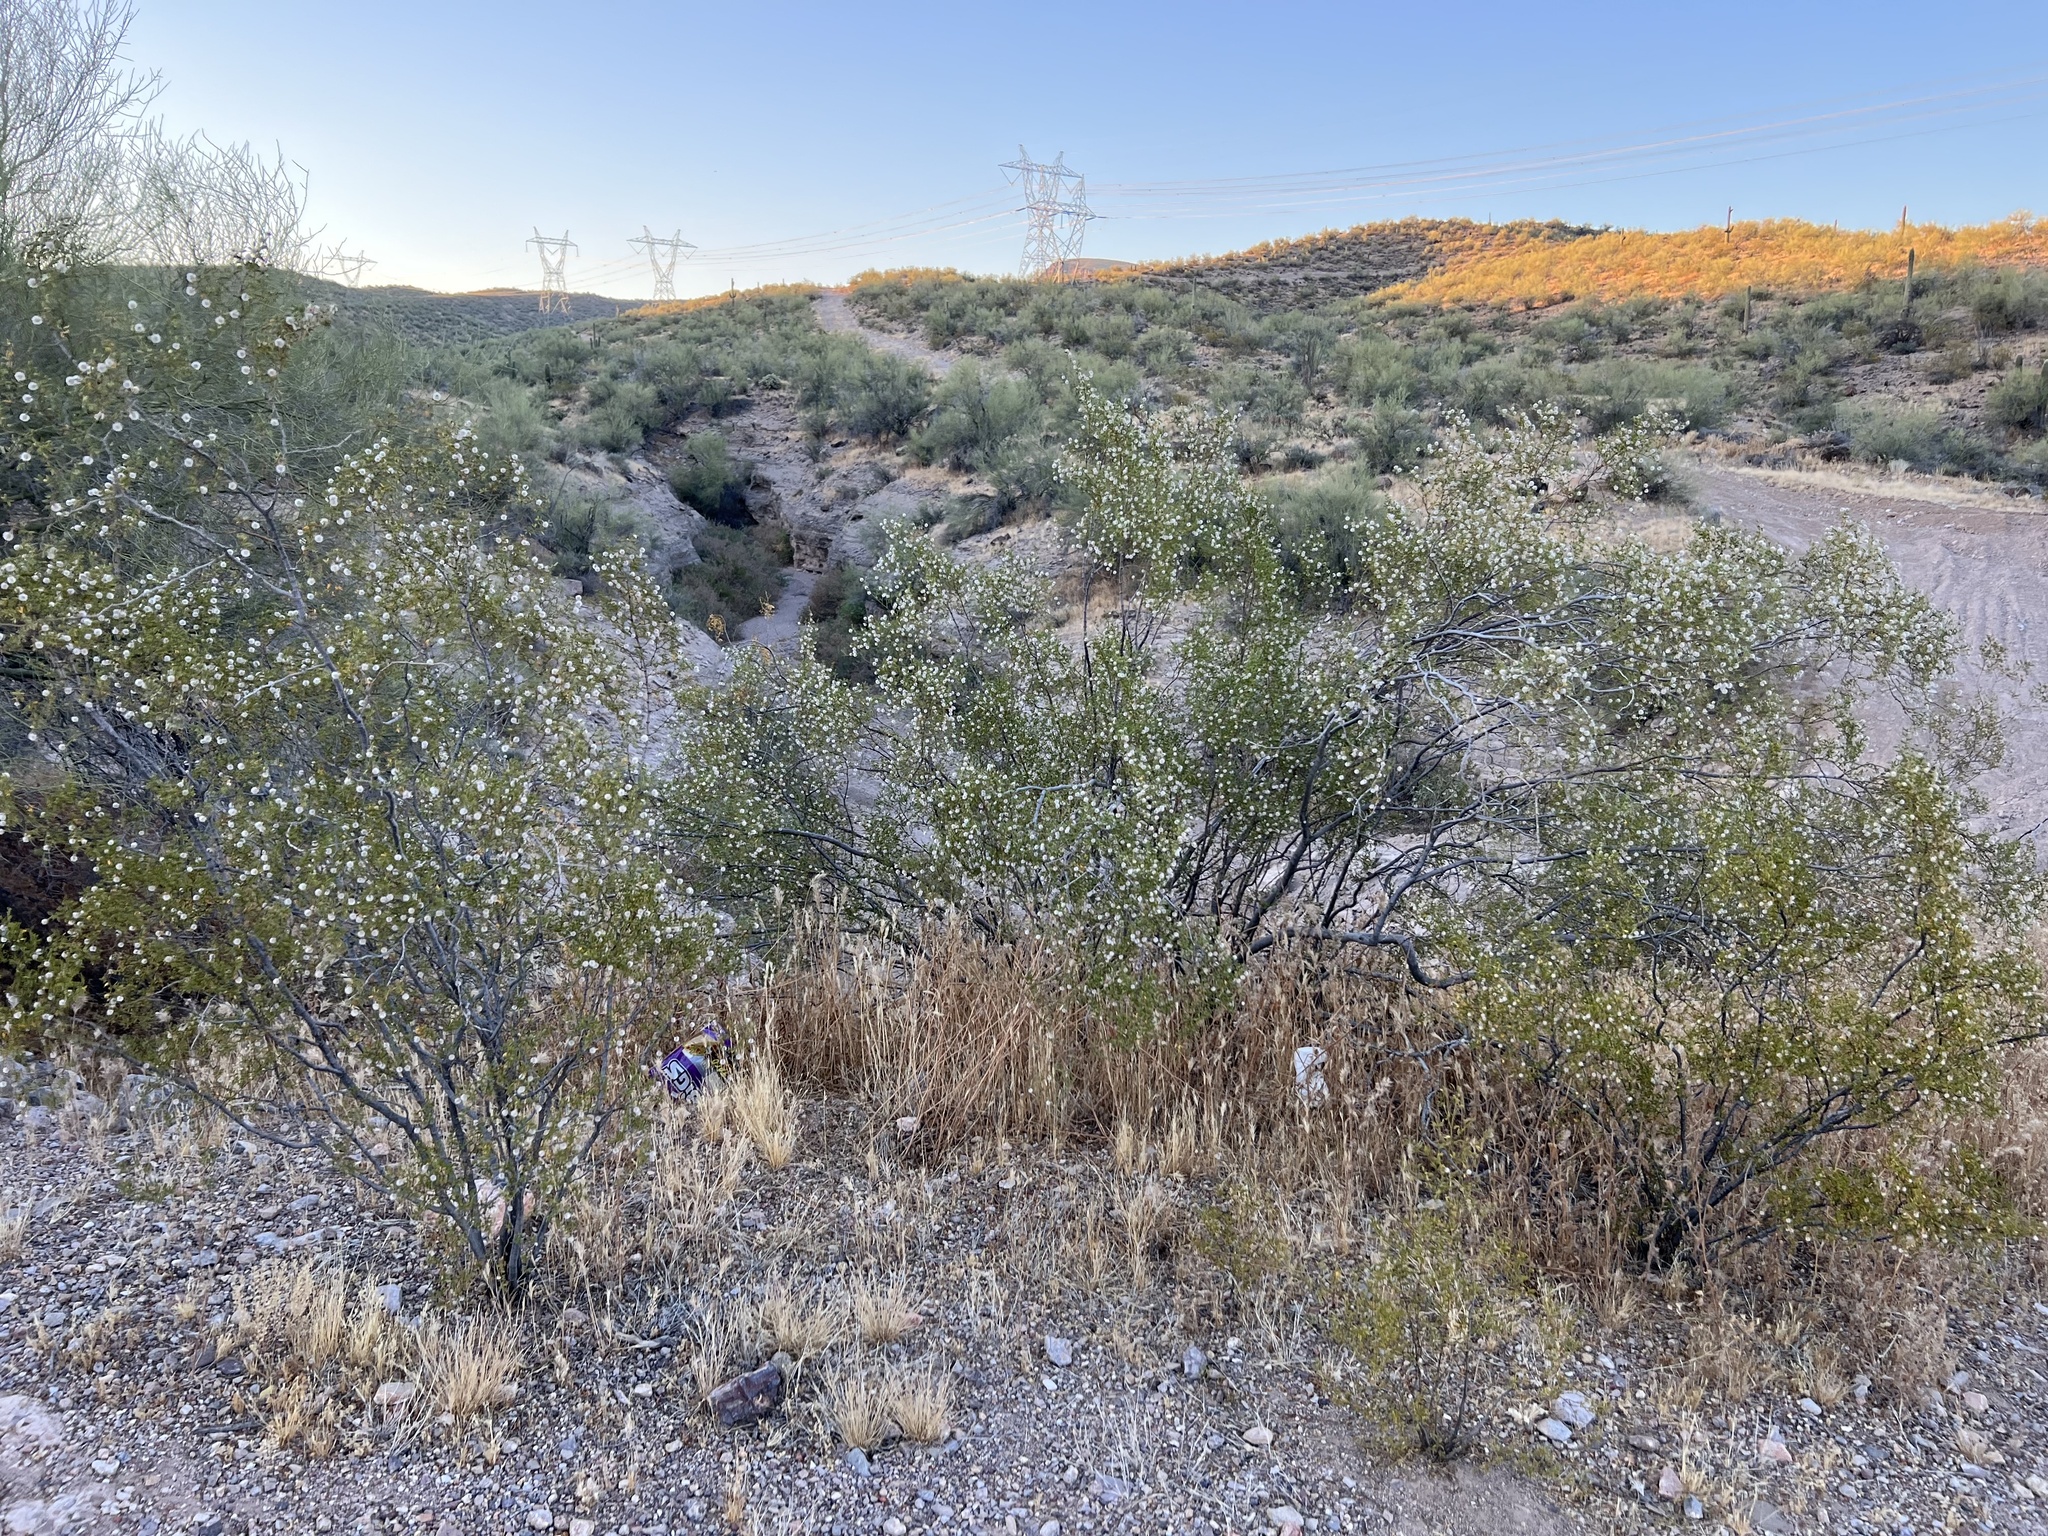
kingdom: Plantae
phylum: Tracheophyta
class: Magnoliopsida
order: Zygophyllales
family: Zygophyllaceae
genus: Larrea
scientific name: Larrea tridentata
